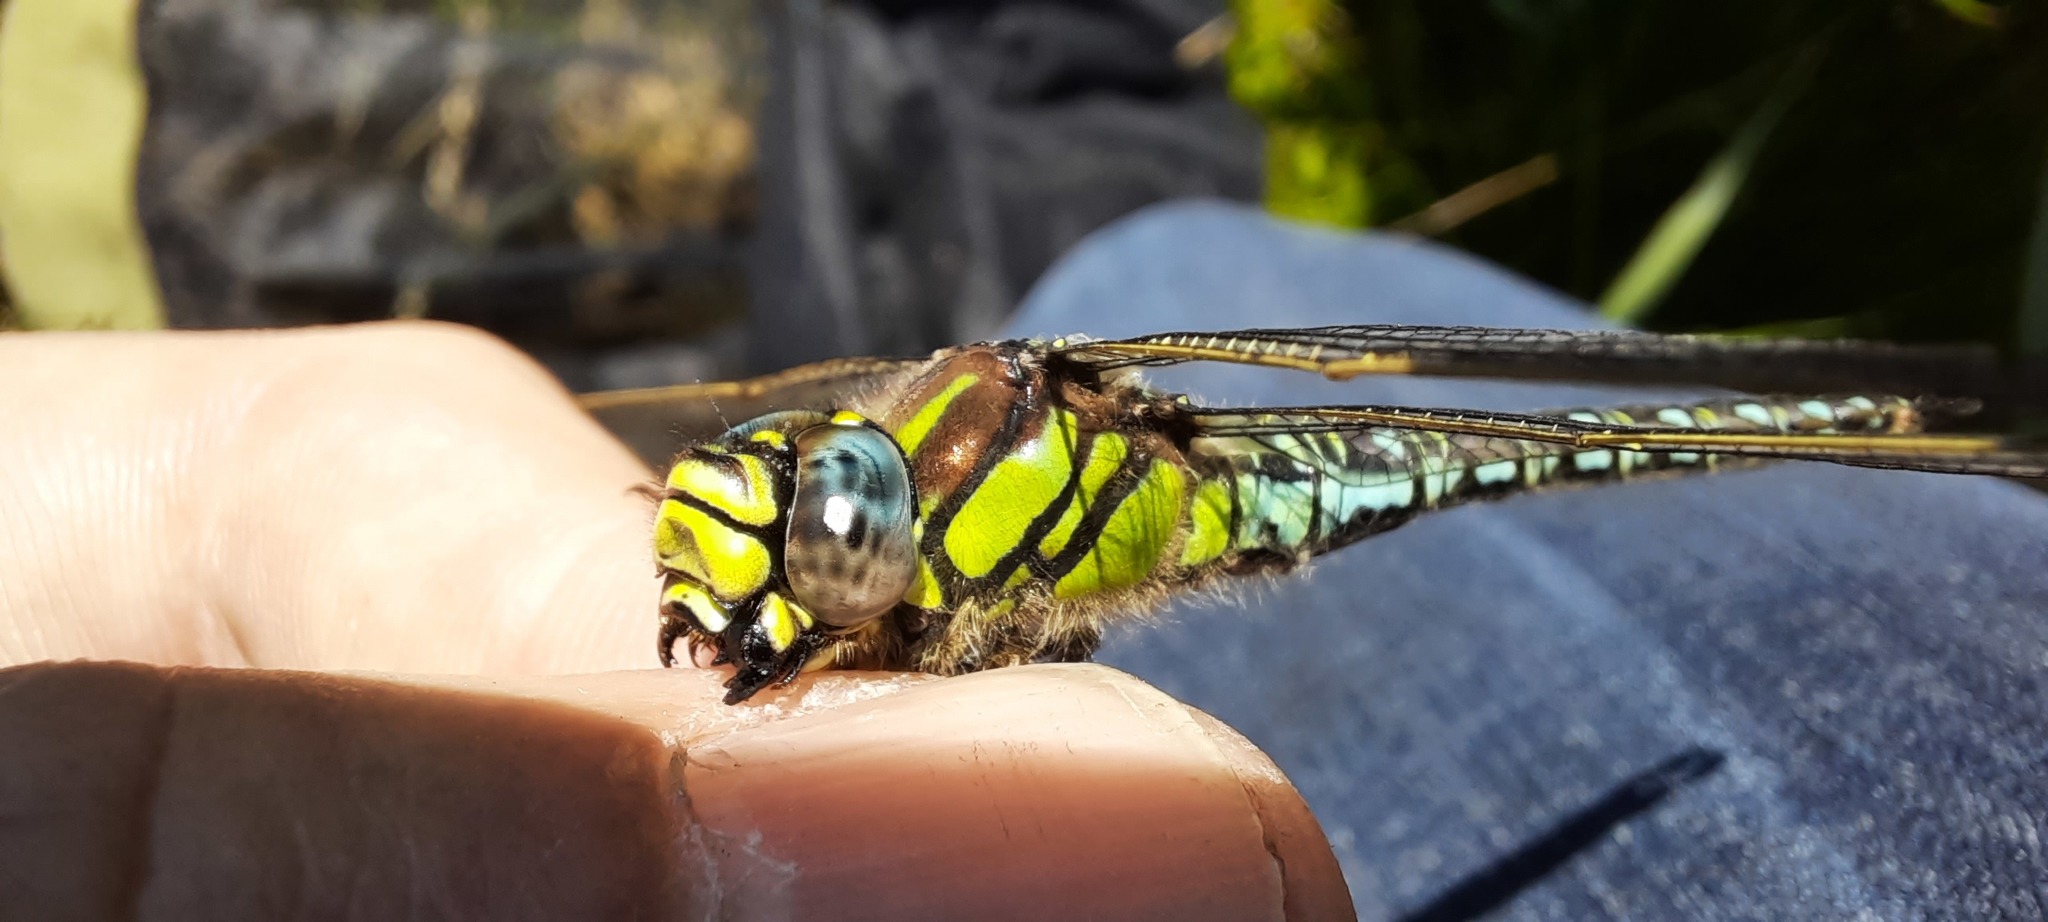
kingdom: Animalia
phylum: Arthropoda
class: Insecta
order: Odonata
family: Aeshnidae
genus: Brachytron
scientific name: Brachytron pratense
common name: Hairy hawker
